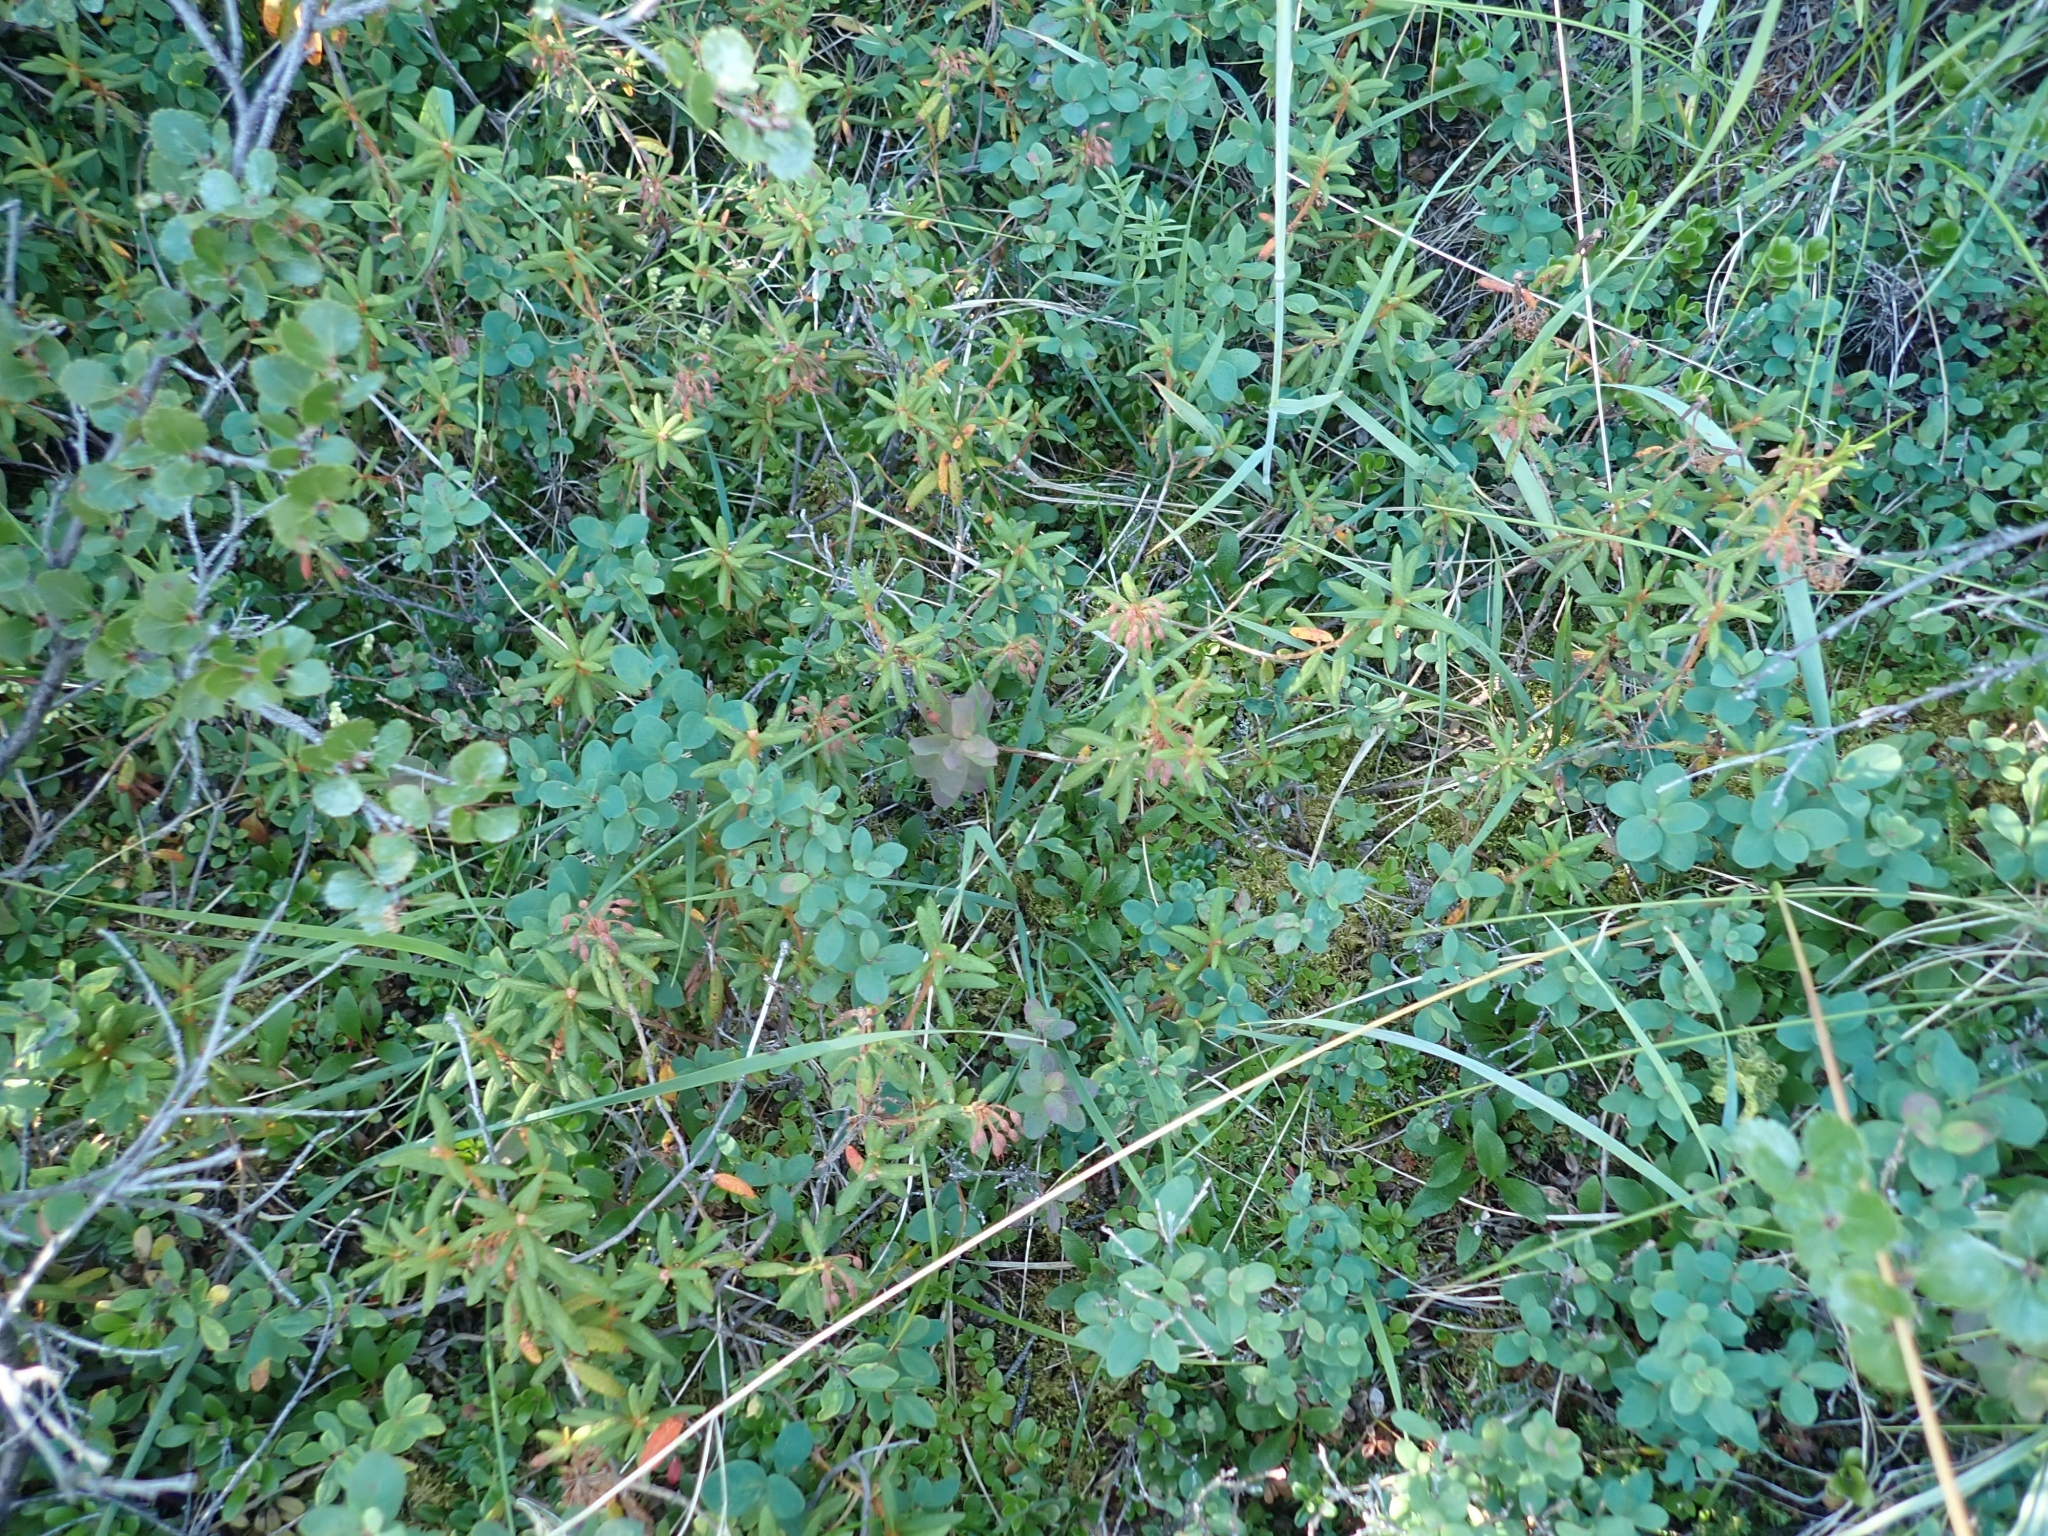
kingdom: Plantae
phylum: Tracheophyta
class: Magnoliopsida
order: Ericales
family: Ericaceae
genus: Rhododendron
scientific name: Rhododendron groenlandicum
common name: Bog labrador tea
